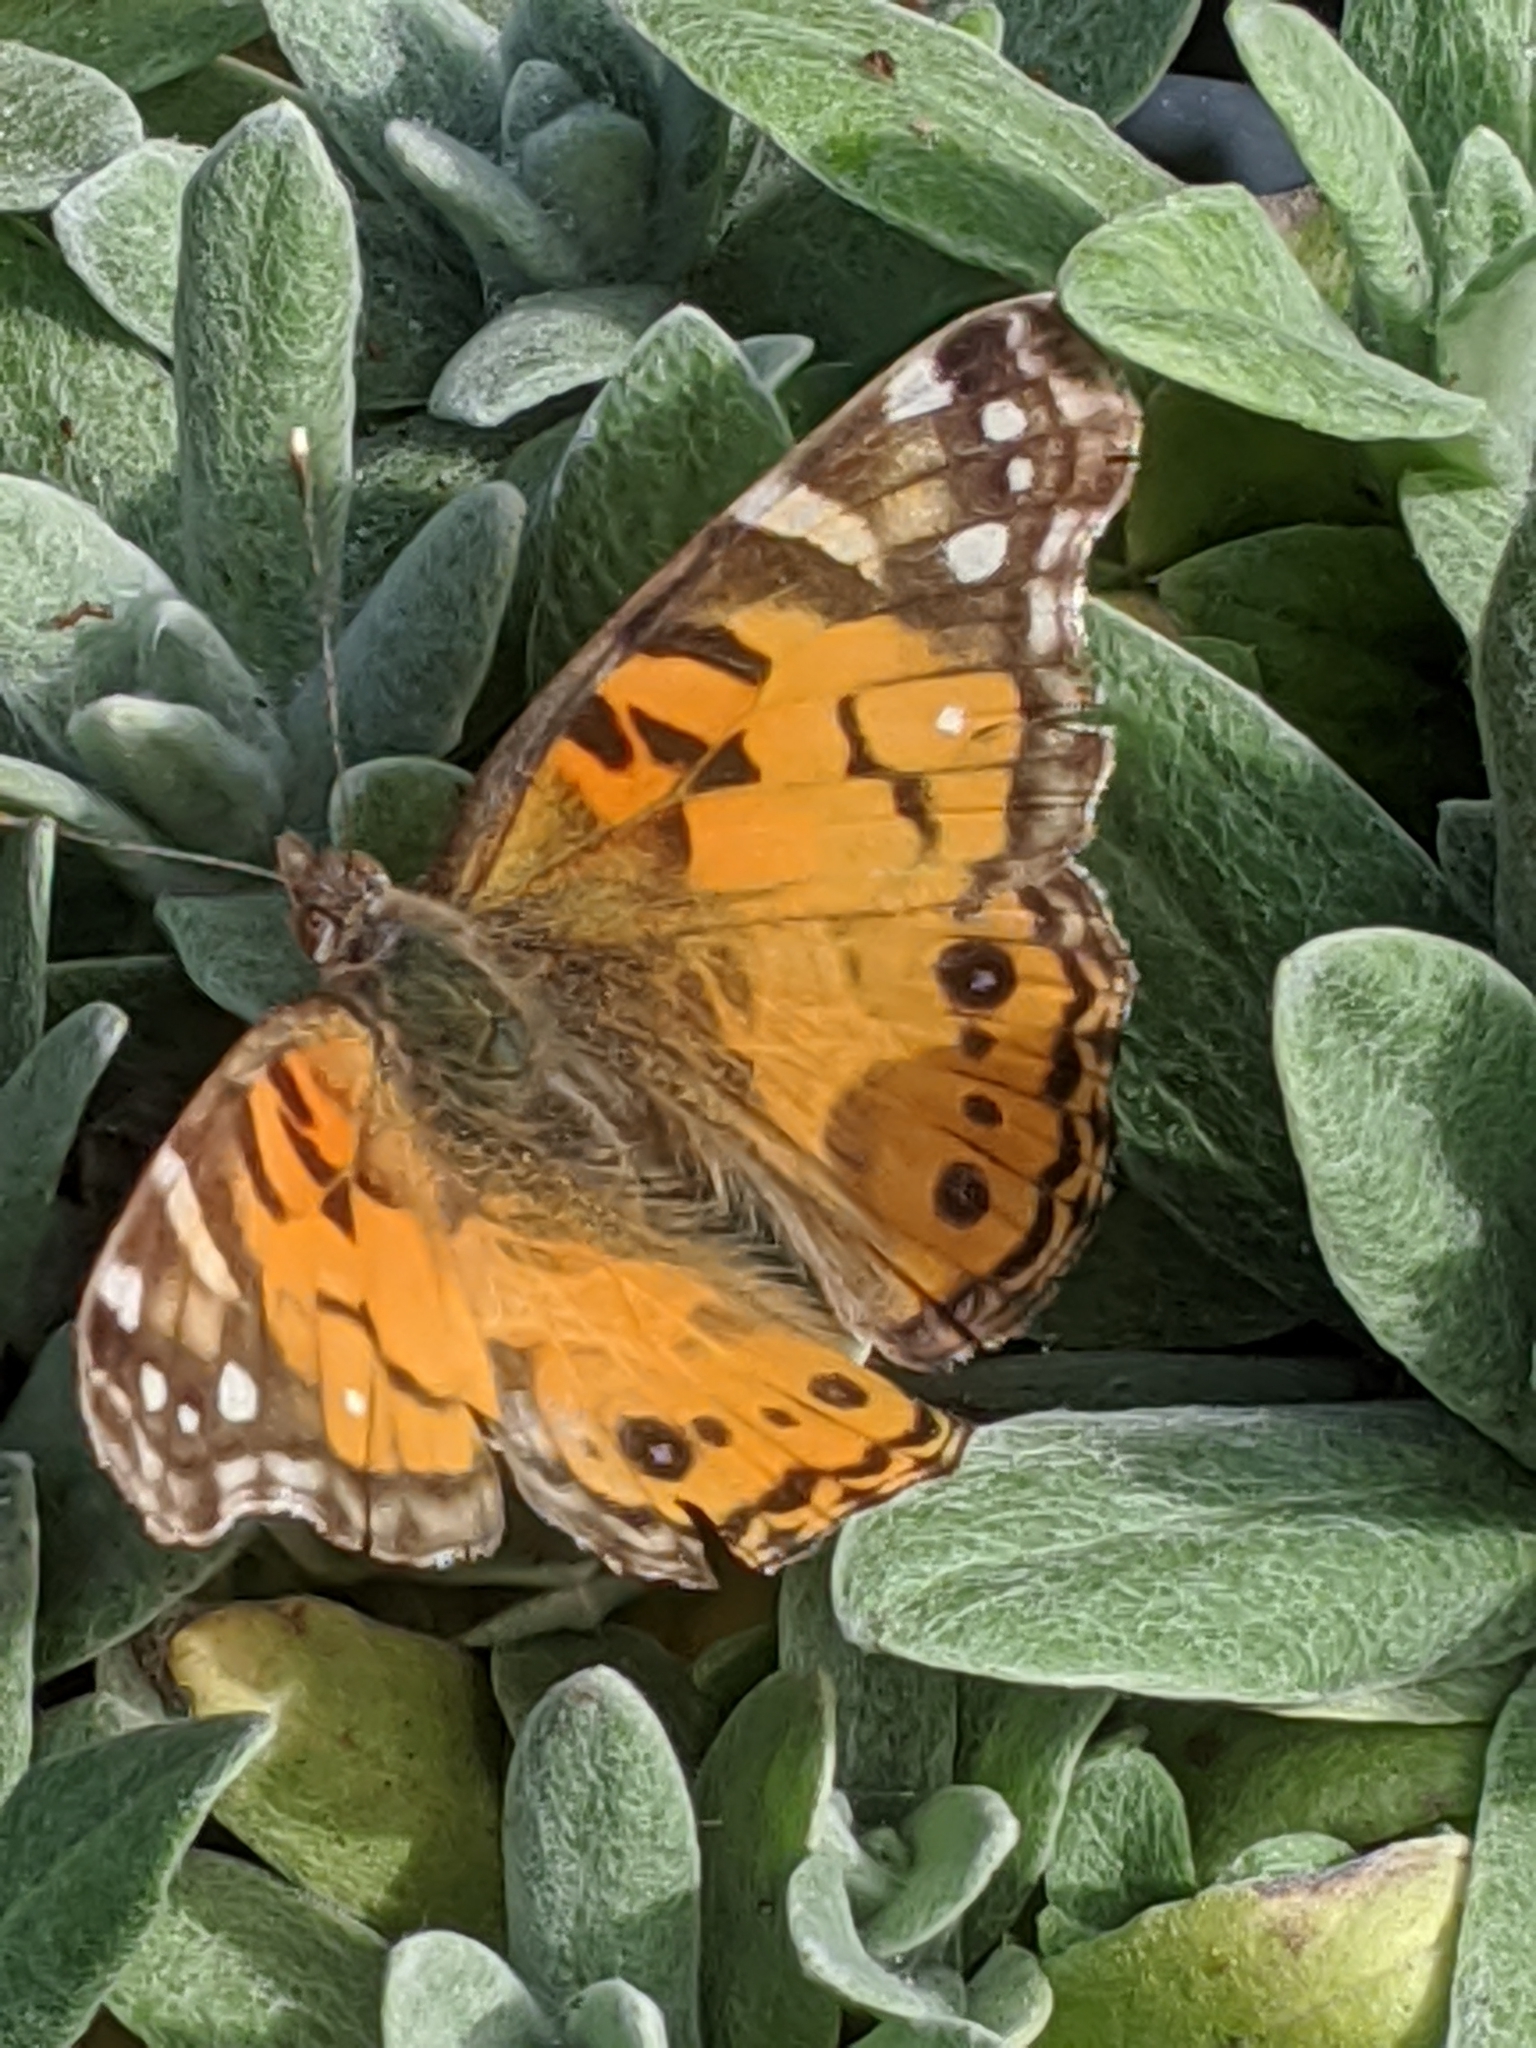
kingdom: Animalia
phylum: Arthropoda
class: Insecta
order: Lepidoptera
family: Nymphalidae
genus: Vanessa
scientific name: Vanessa virginiensis
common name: American lady
